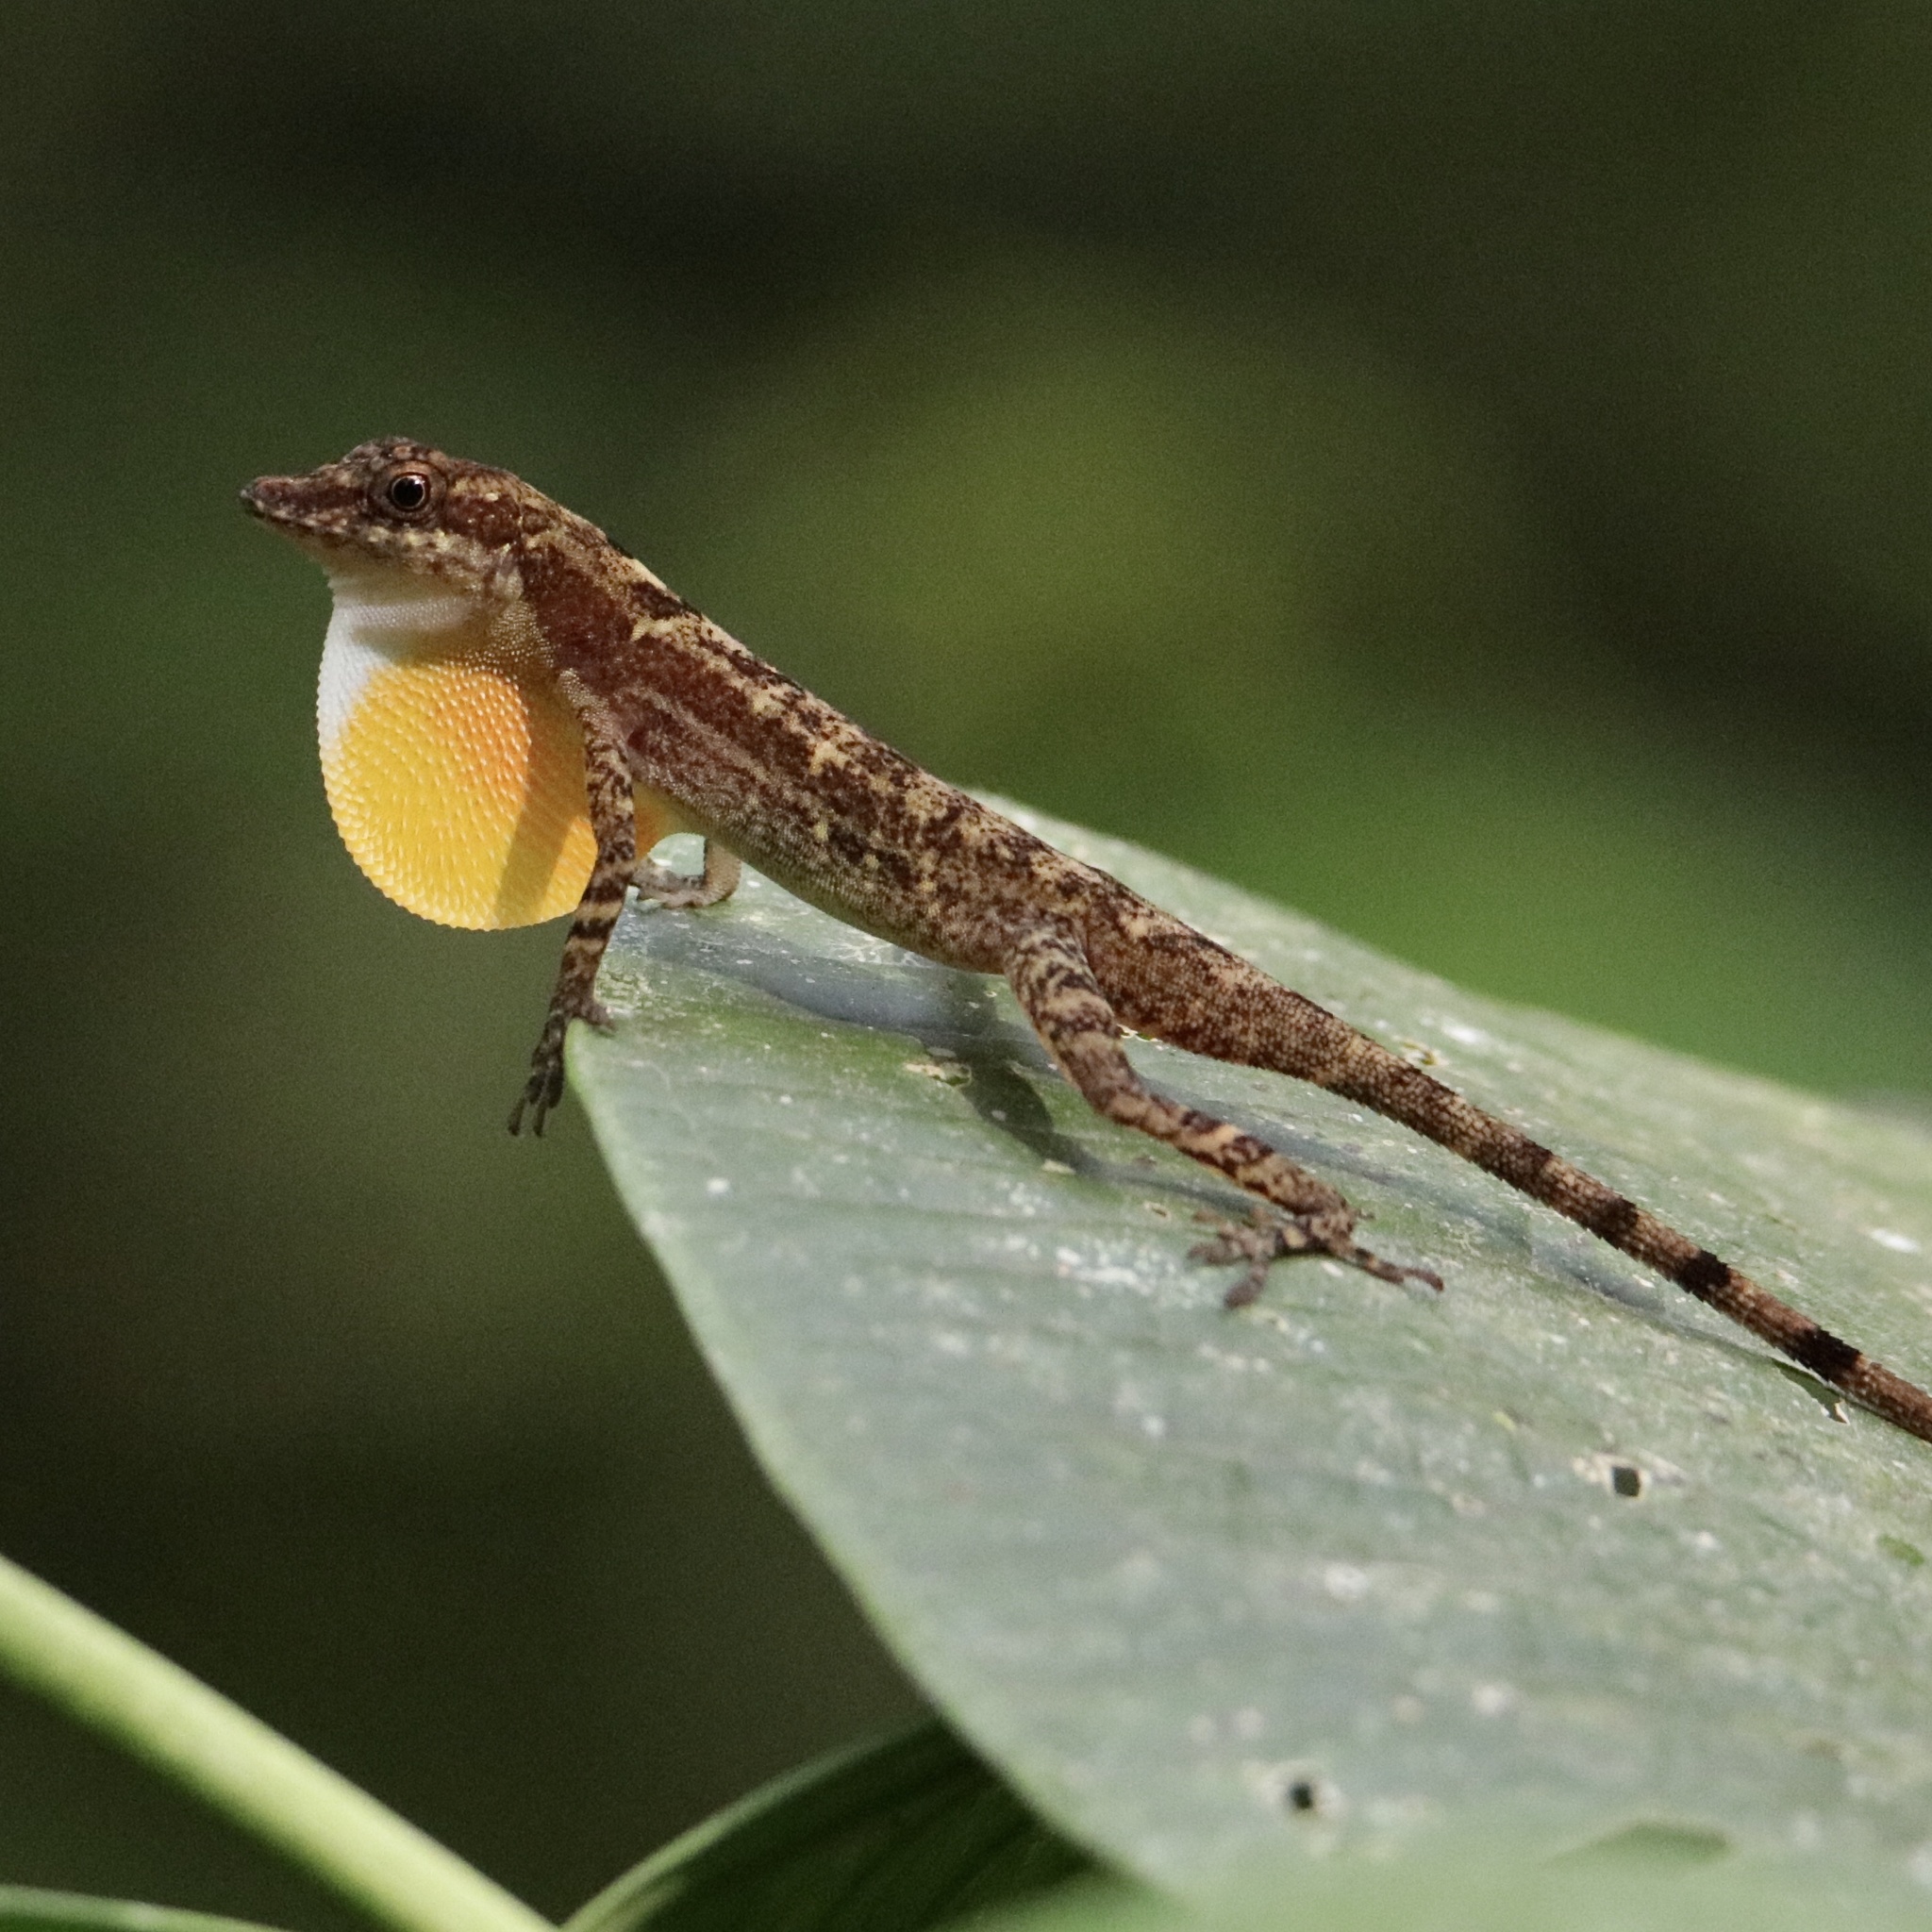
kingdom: Animalia
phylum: Chordata
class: Squamata
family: Dactyloidae
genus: Anolis
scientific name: Anolis apletophallus
